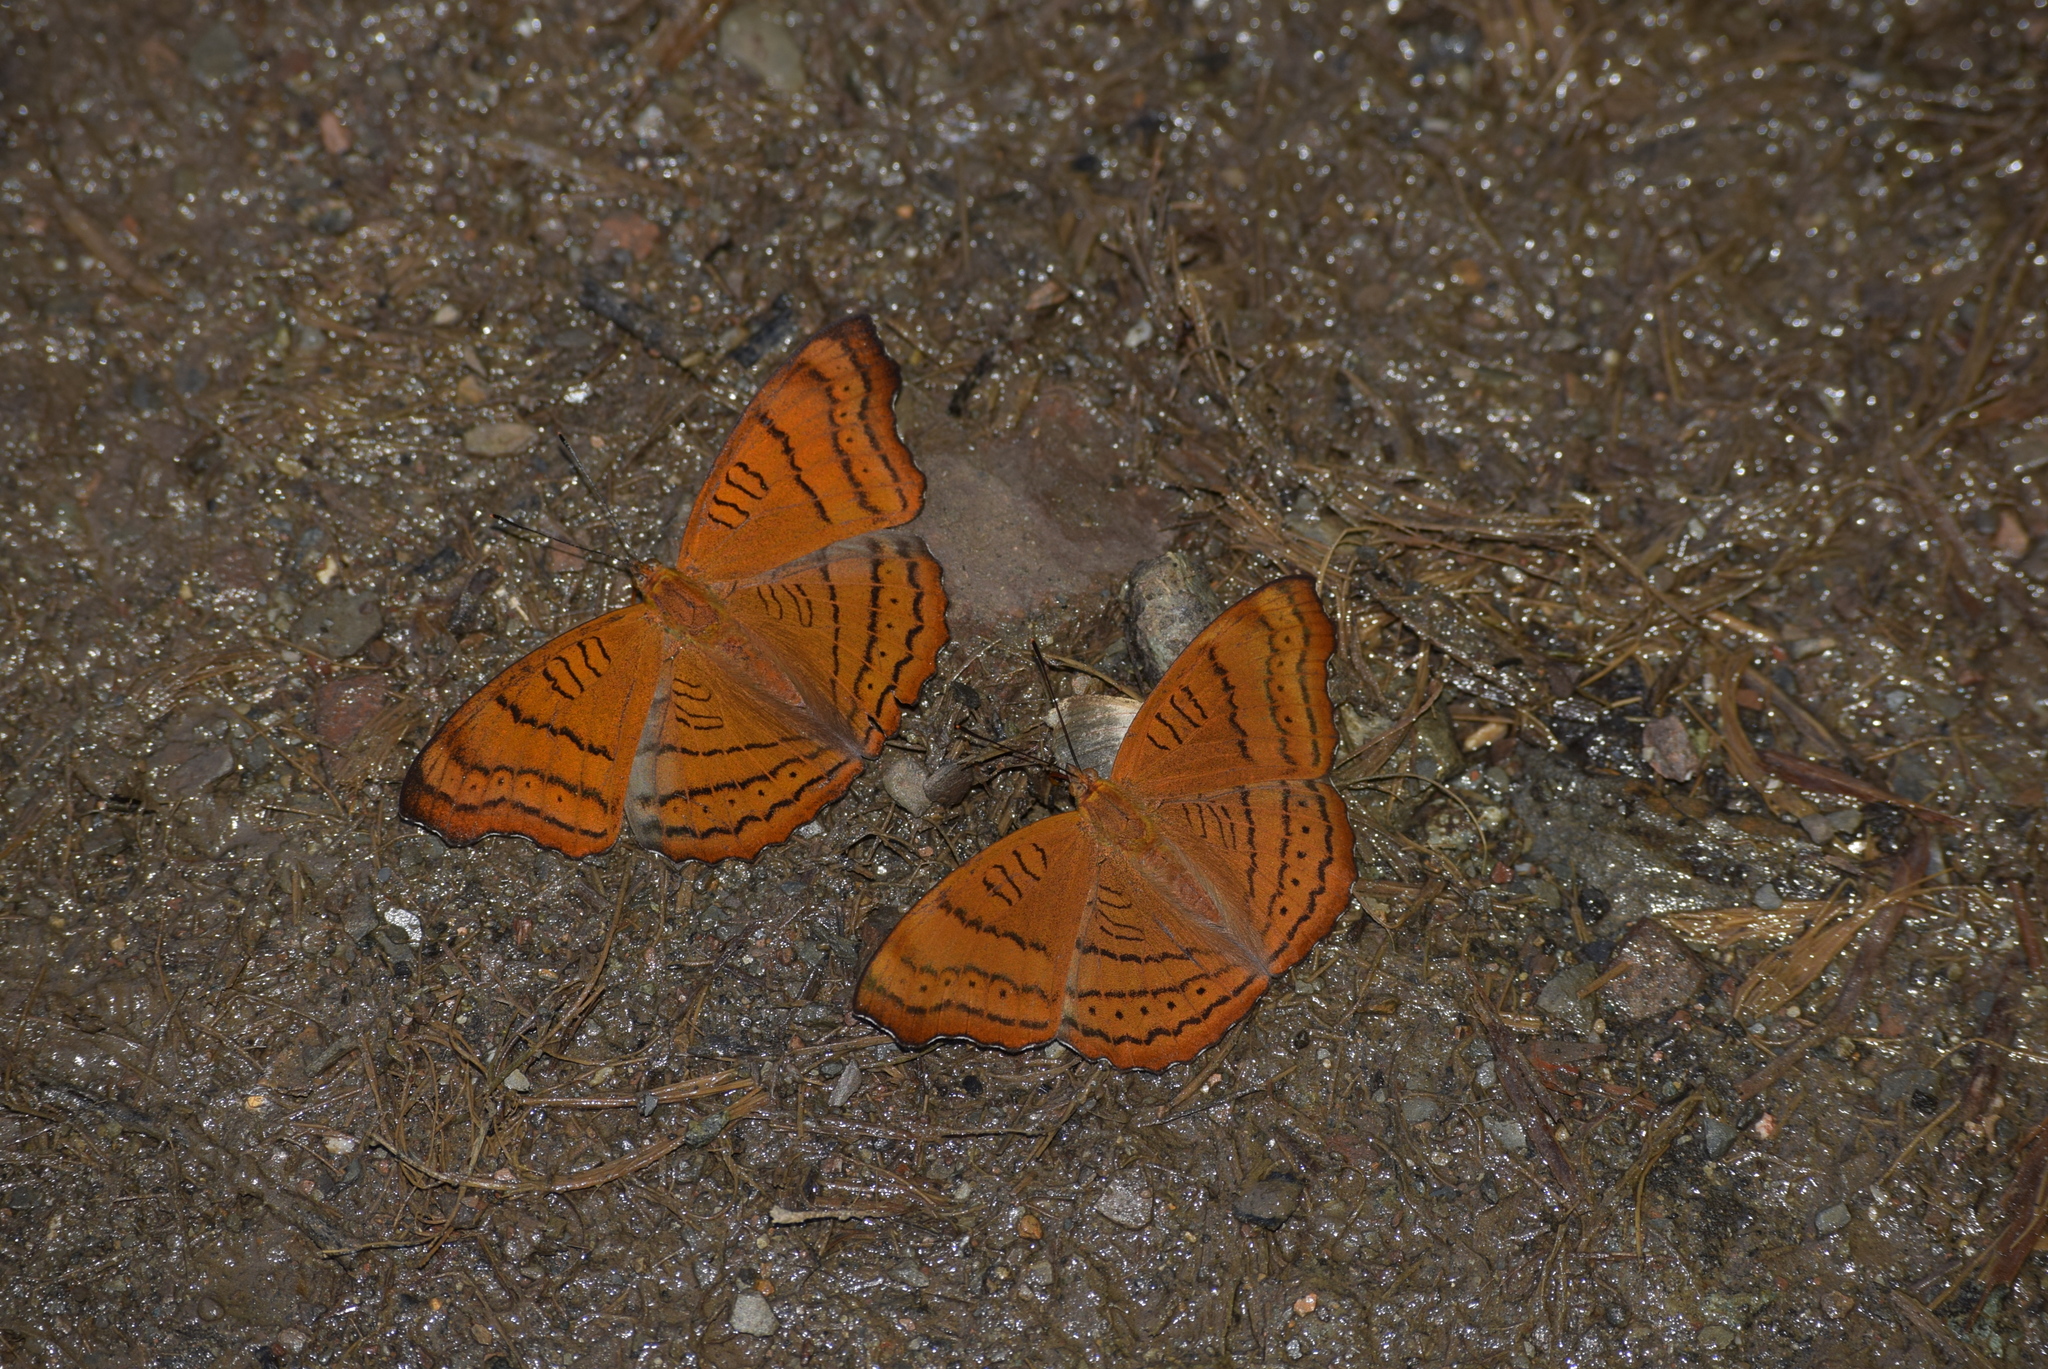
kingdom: Animalia
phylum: Arthropoda
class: Insecta
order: Lepidoptera
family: Nymphalidae
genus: Pseudergolis
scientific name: Pseudergolis wedah
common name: Tabby
